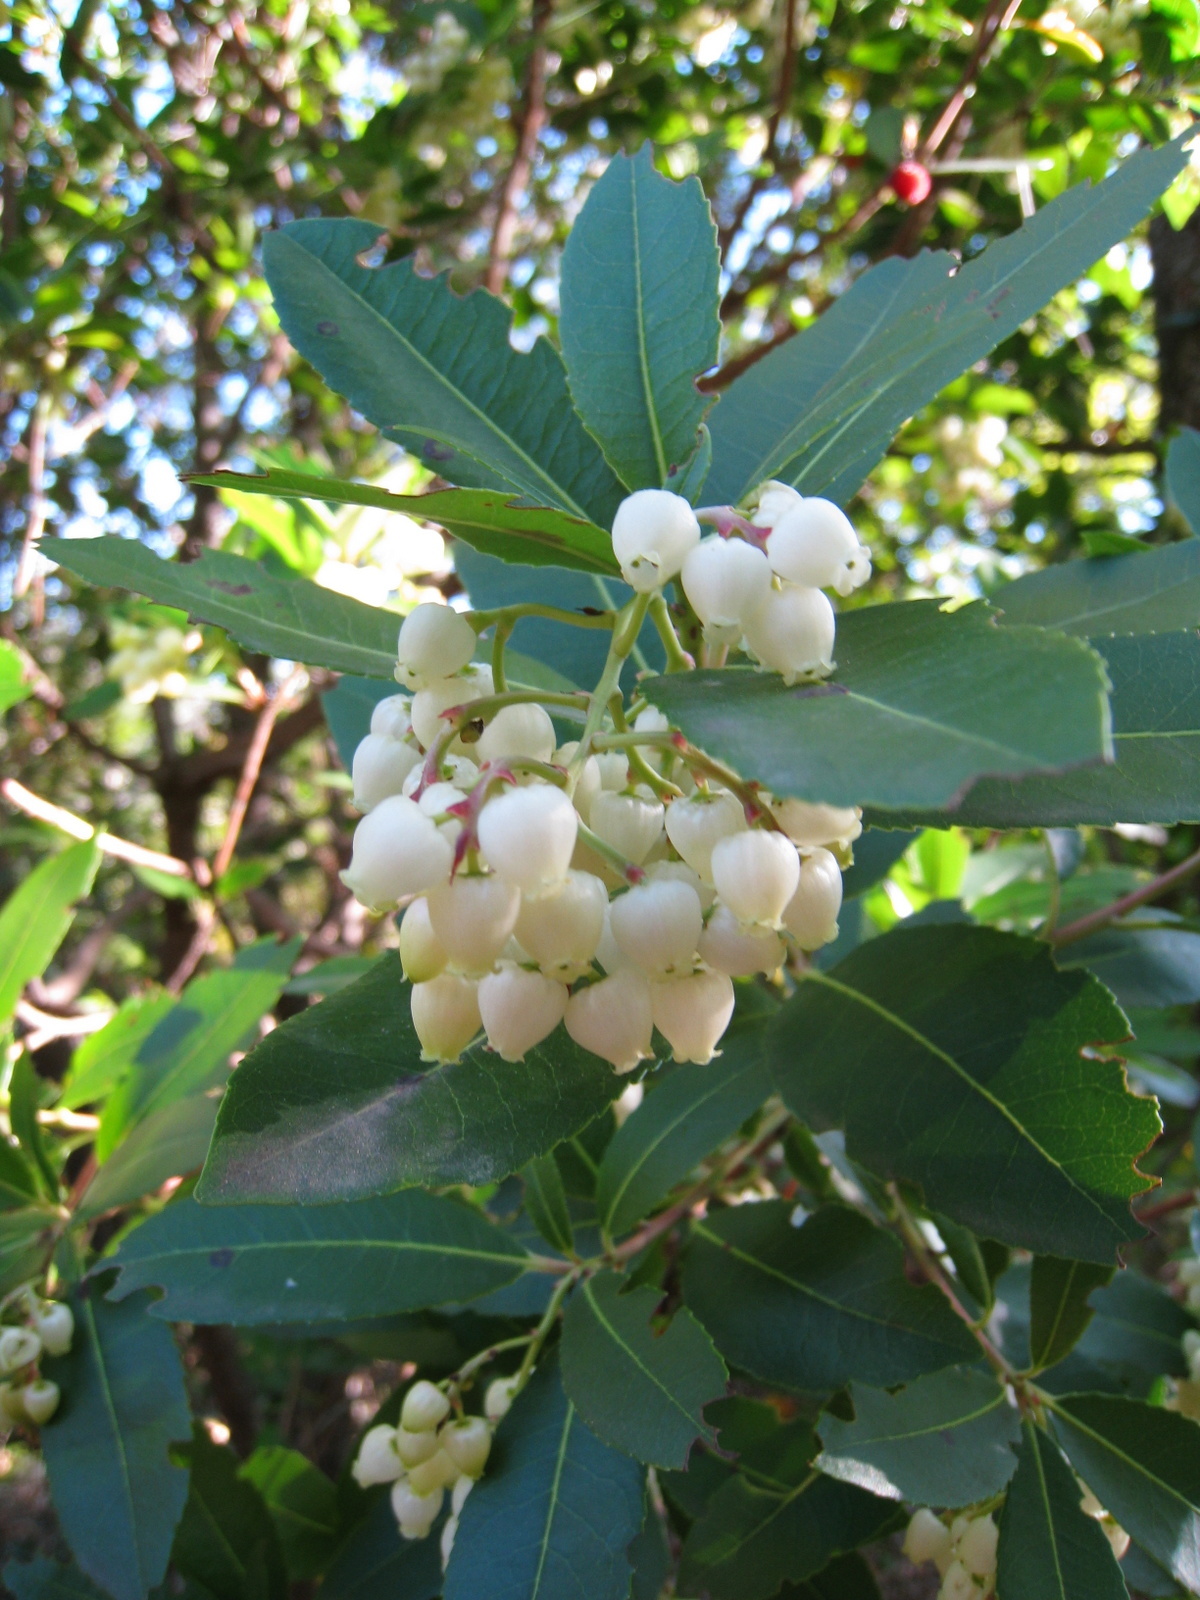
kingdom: Plantae
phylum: Tracheophyta
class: Magnoliopsida
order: Ericales
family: Ericaceae
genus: Arbutus
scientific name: Arbutus unedo
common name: Strawberry-tree
